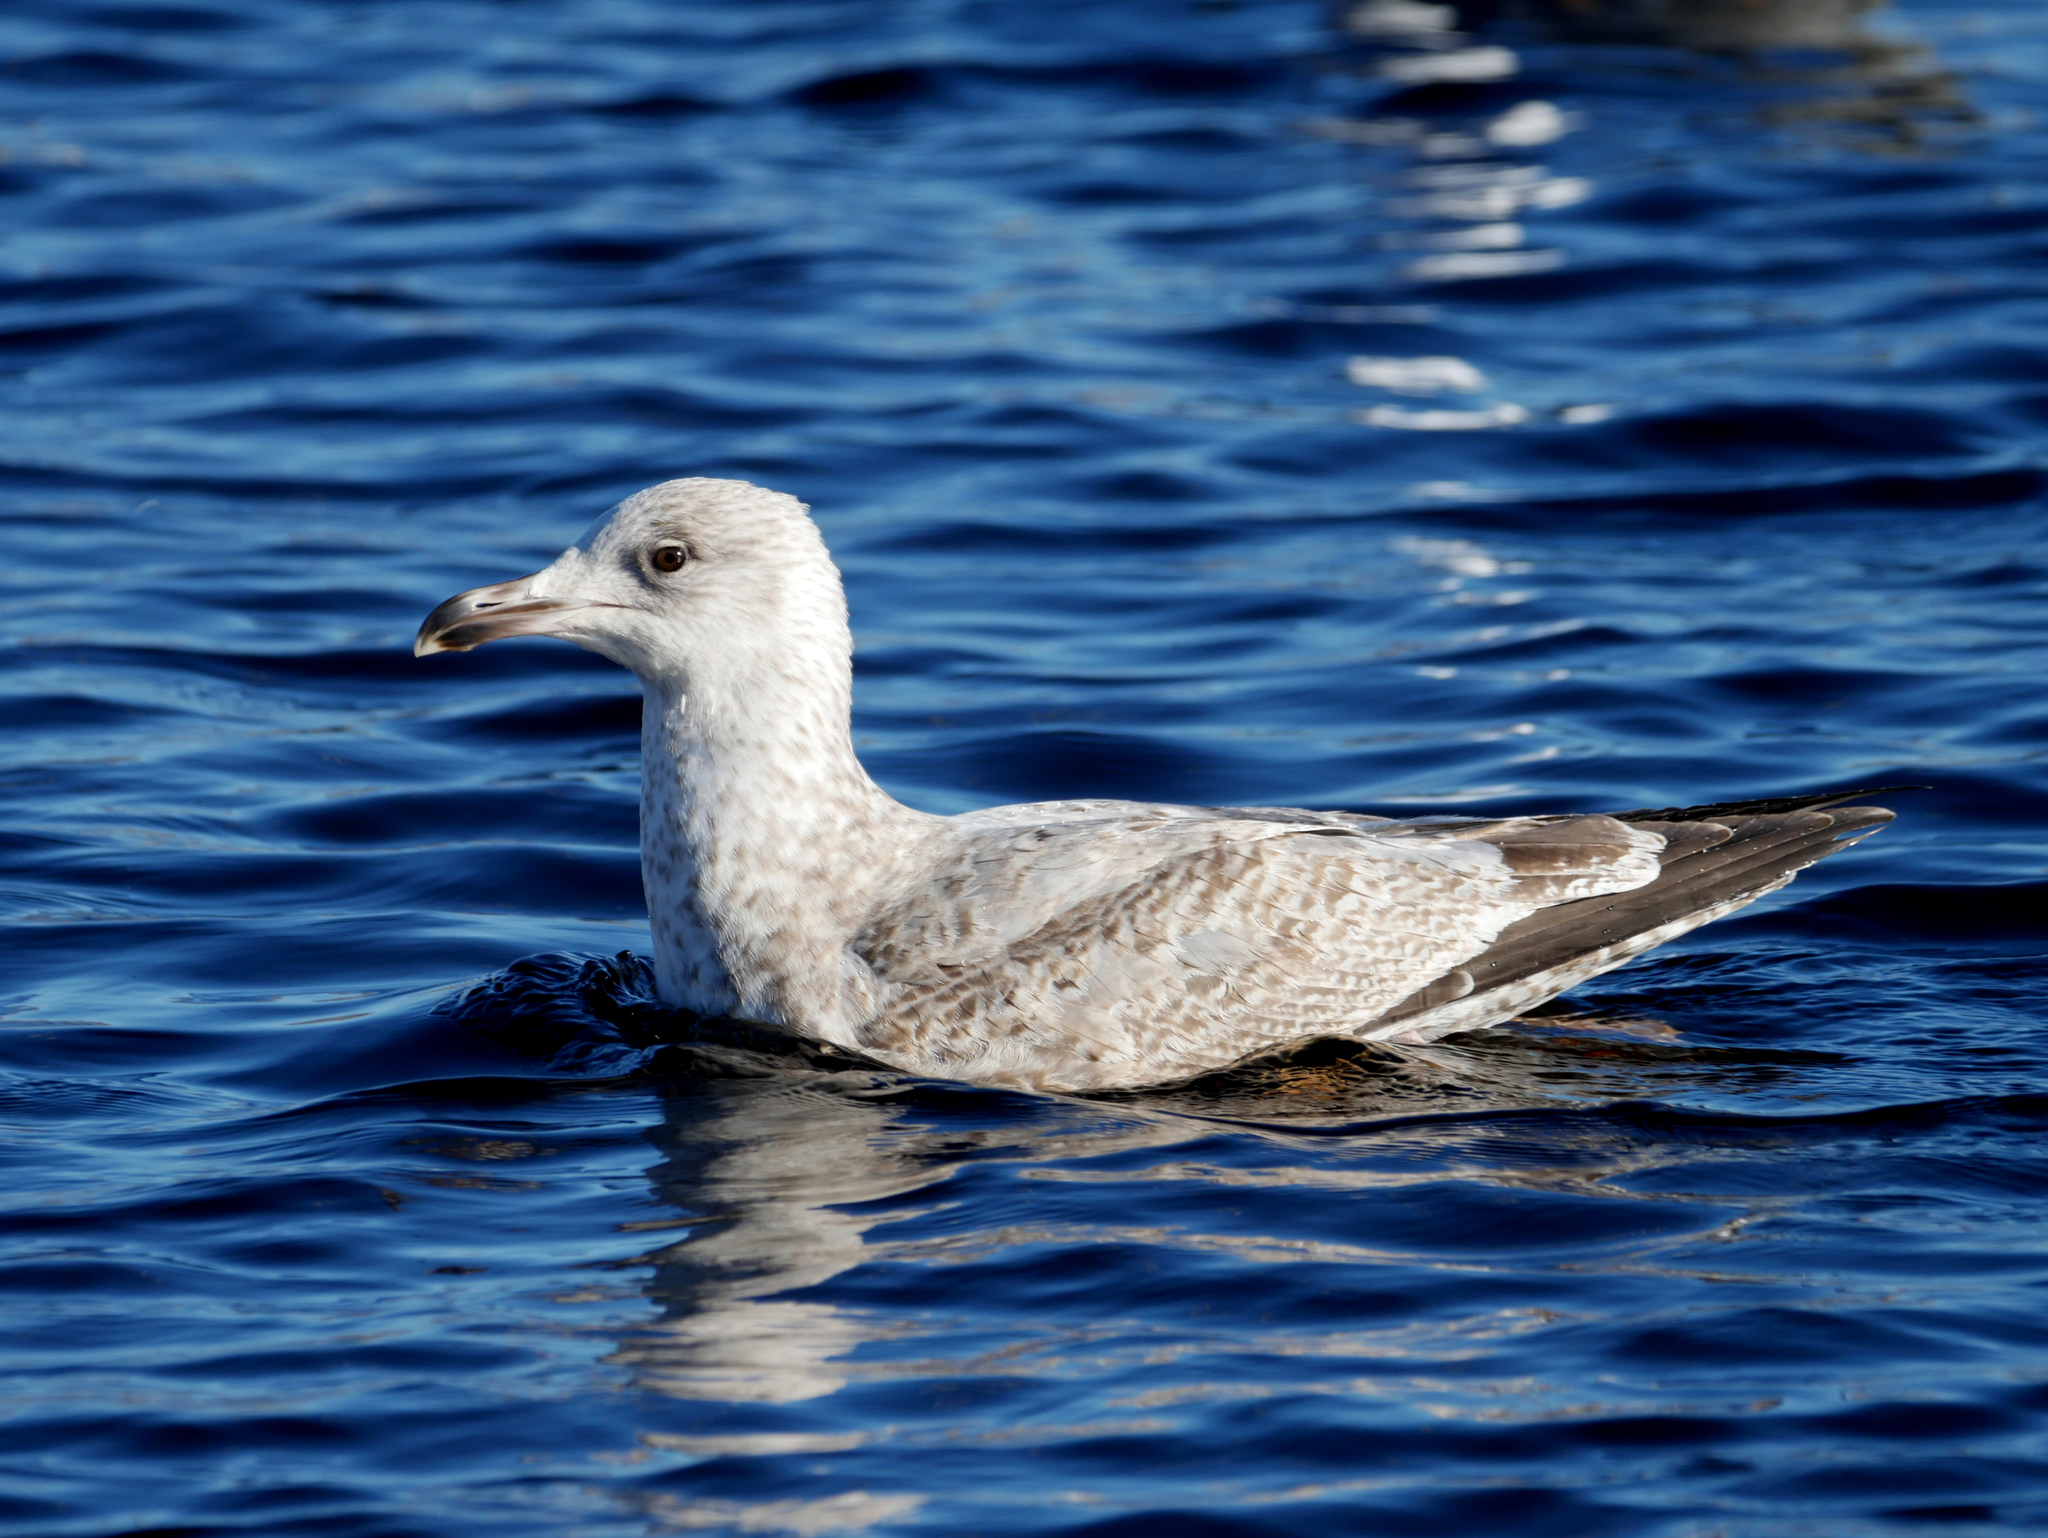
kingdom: Animalia
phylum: Chordata
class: Aves
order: Charadriiformes
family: Laridae
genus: Larus
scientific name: Larus argentatus
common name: Herring gull
